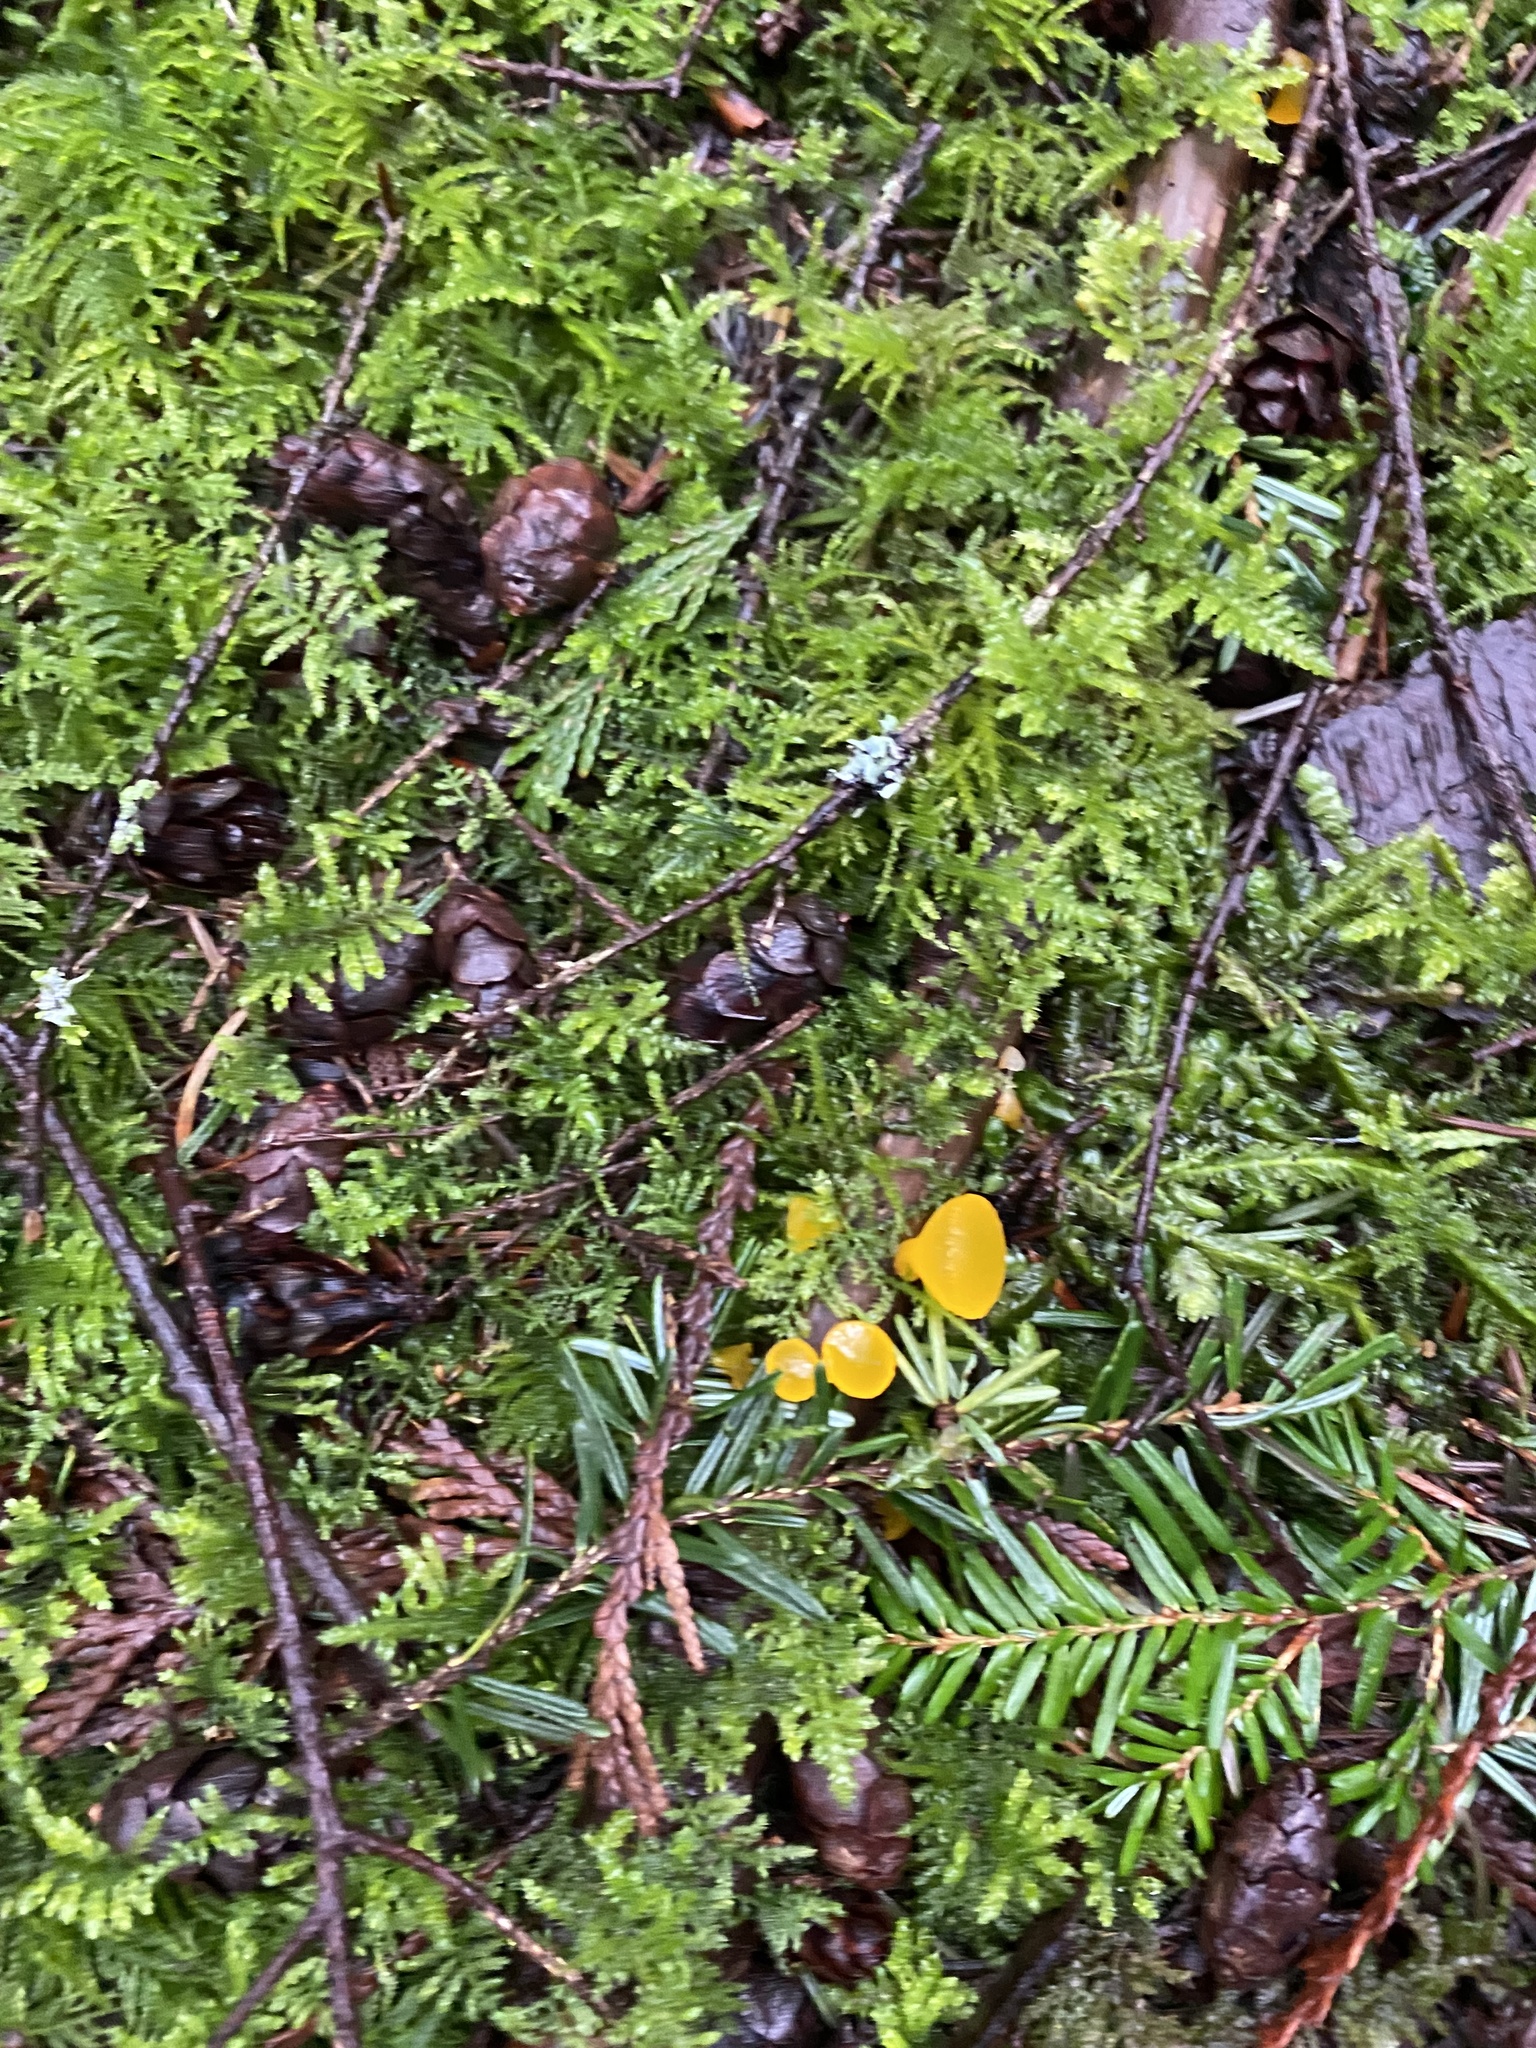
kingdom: Fungi
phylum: Basidiomycota
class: Dacrymycetes
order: Dacrymycetales
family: Dacrymycetaceae
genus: Guepiniopsis
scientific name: Guepiniopsis alpina
